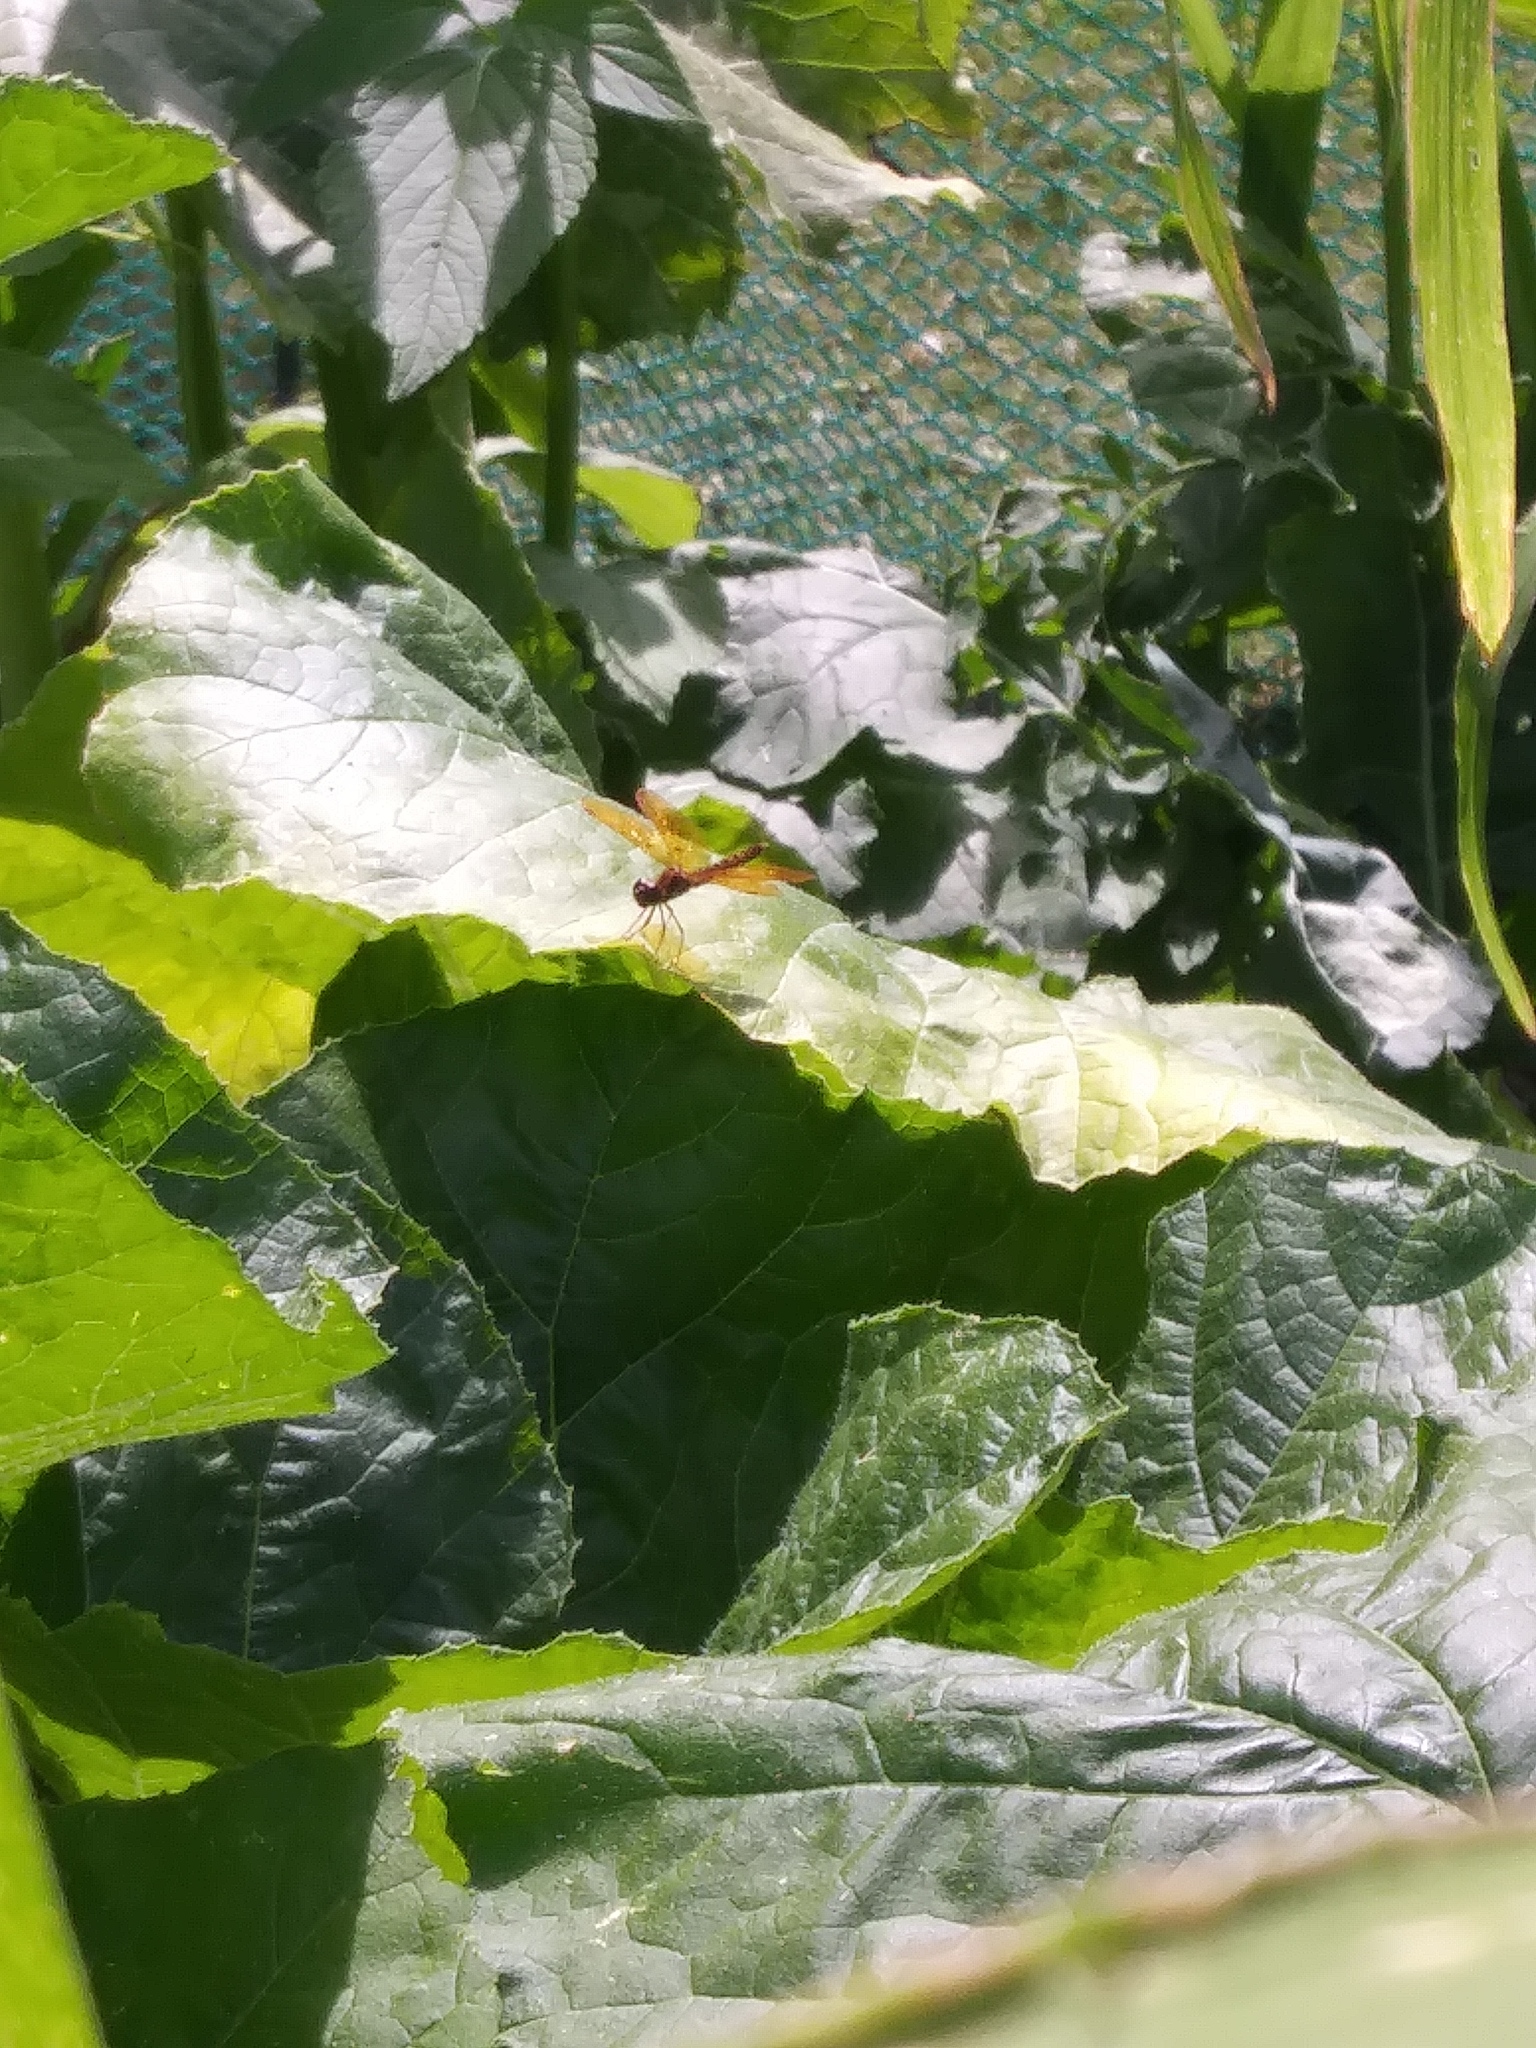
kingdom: Animalia
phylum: Arthropoda
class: Insecta
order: Odonata
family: Libellulidae
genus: Perithemis
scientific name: Perithemis tenera
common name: Eastern amberwing
